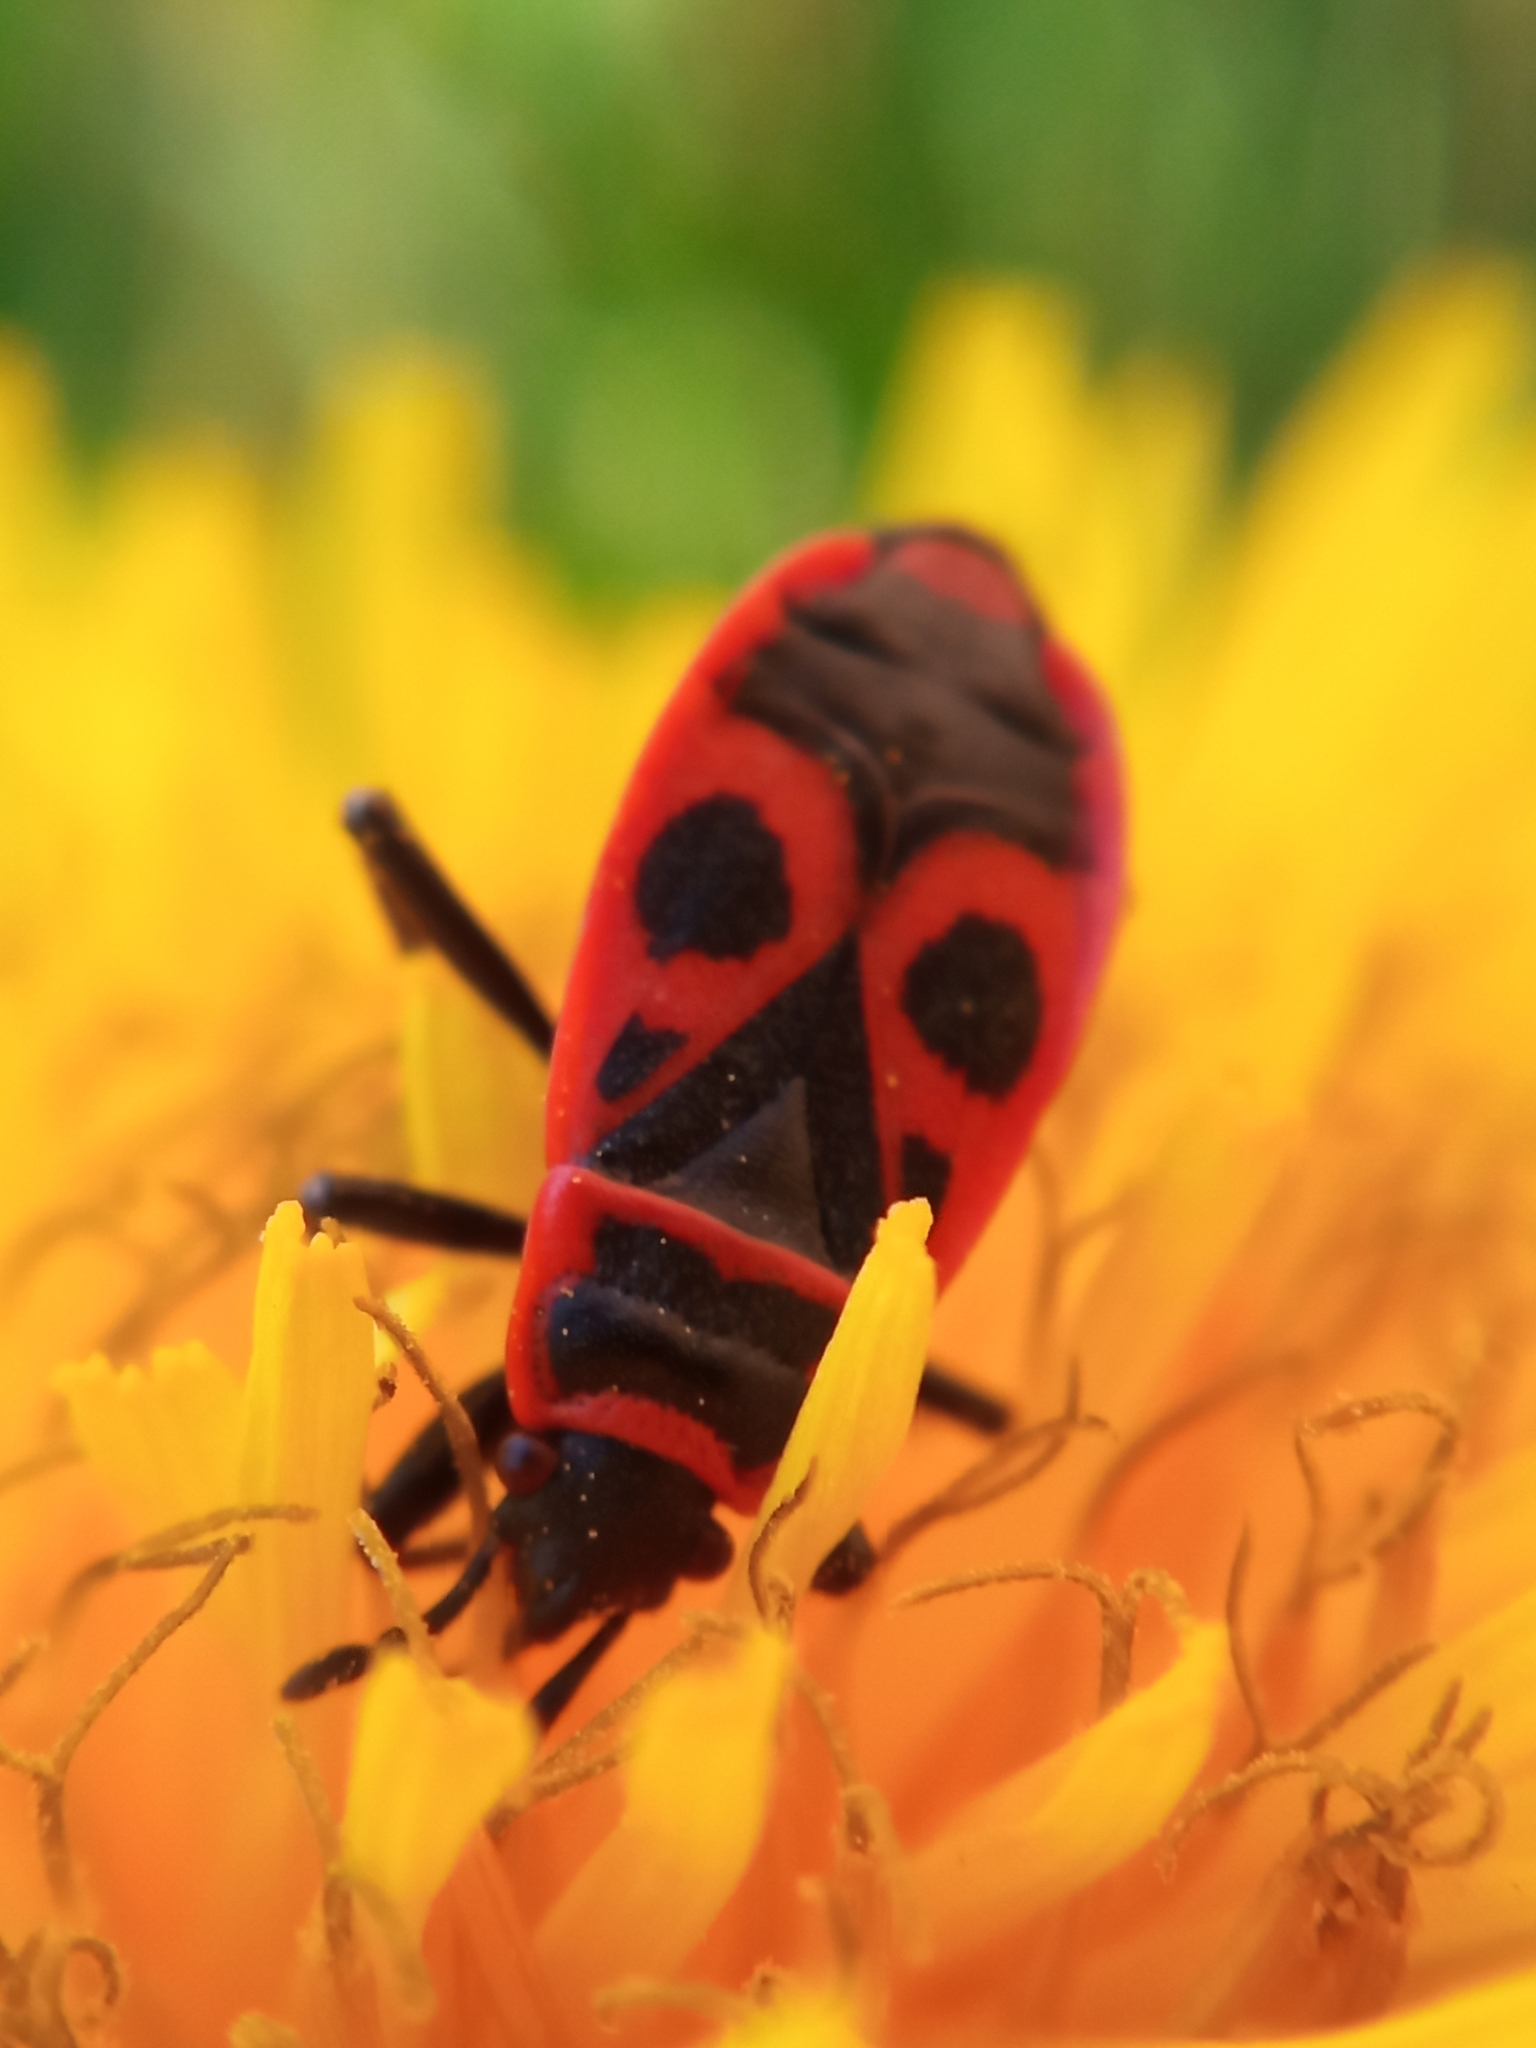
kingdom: Animalia
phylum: Arthropoda
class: Insecta
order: Hemiptera
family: Pyrrhocoridae
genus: Pyrrhocoris
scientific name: Pyrrhocoris apterus
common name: Firebug
